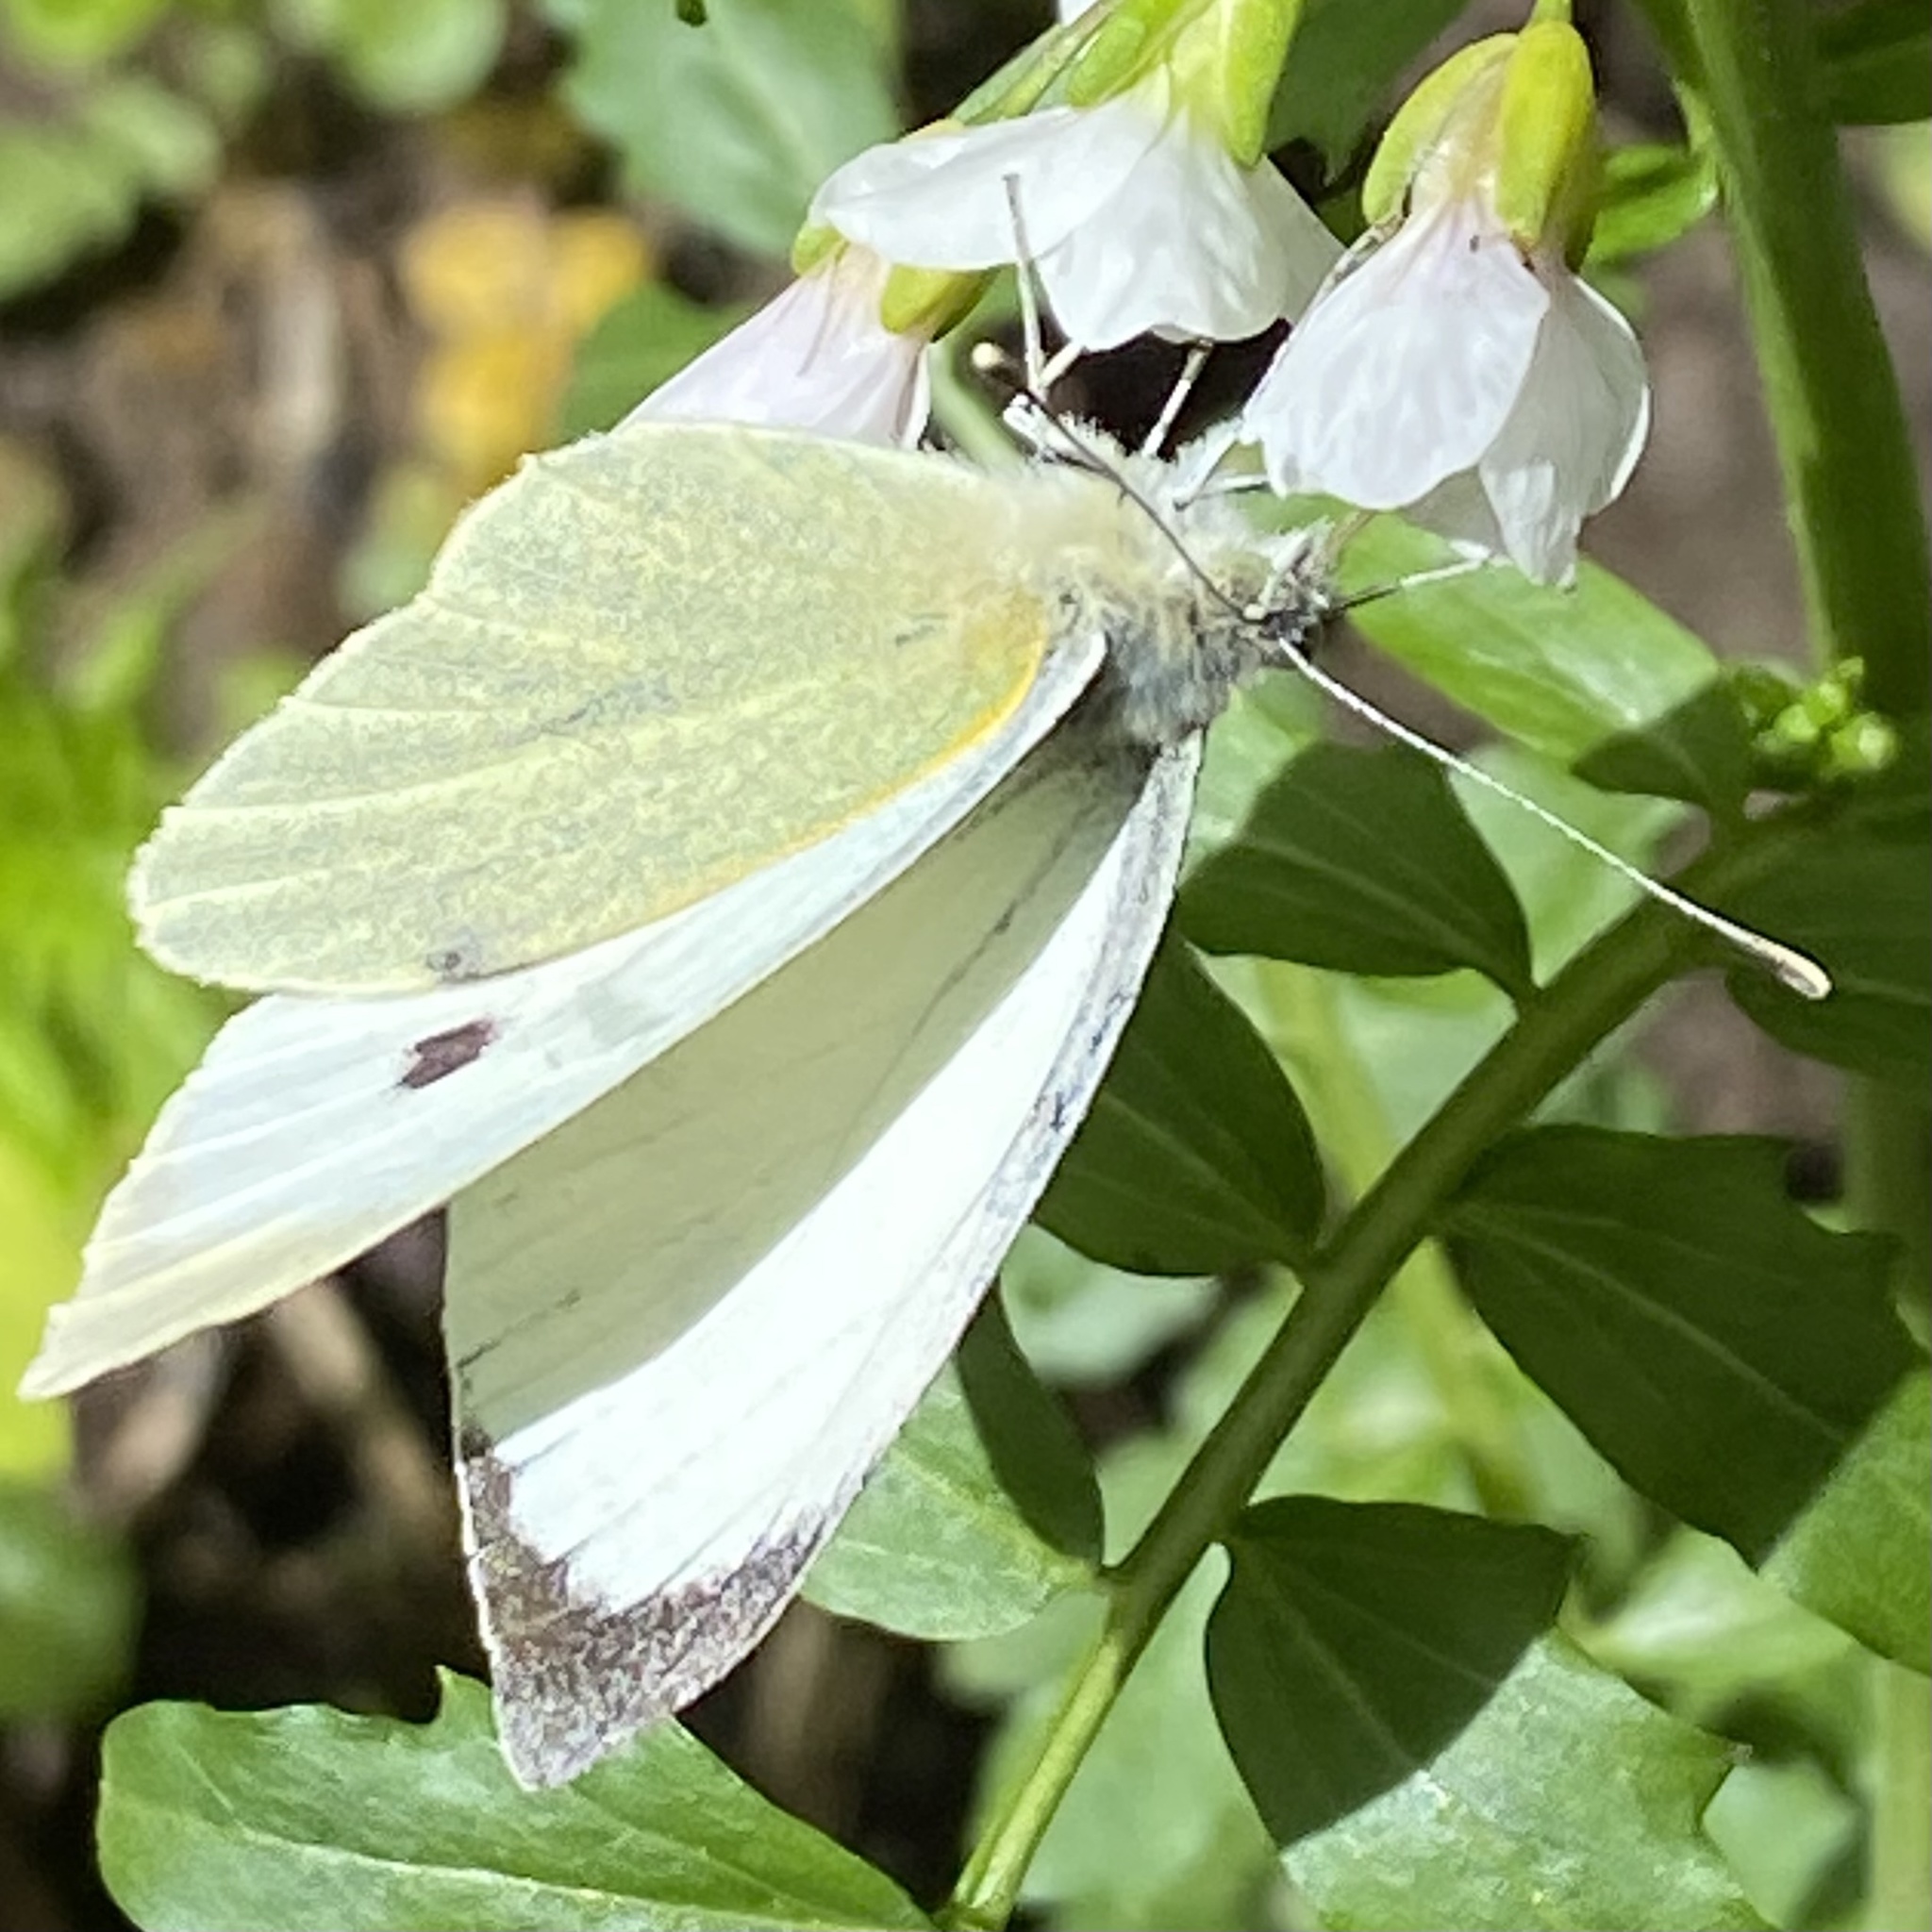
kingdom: Animalia
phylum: Arthropoda
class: Insecta
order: Lepidoptera
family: Pieridae
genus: Pieris
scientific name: Pieris brassicae
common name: Large white
